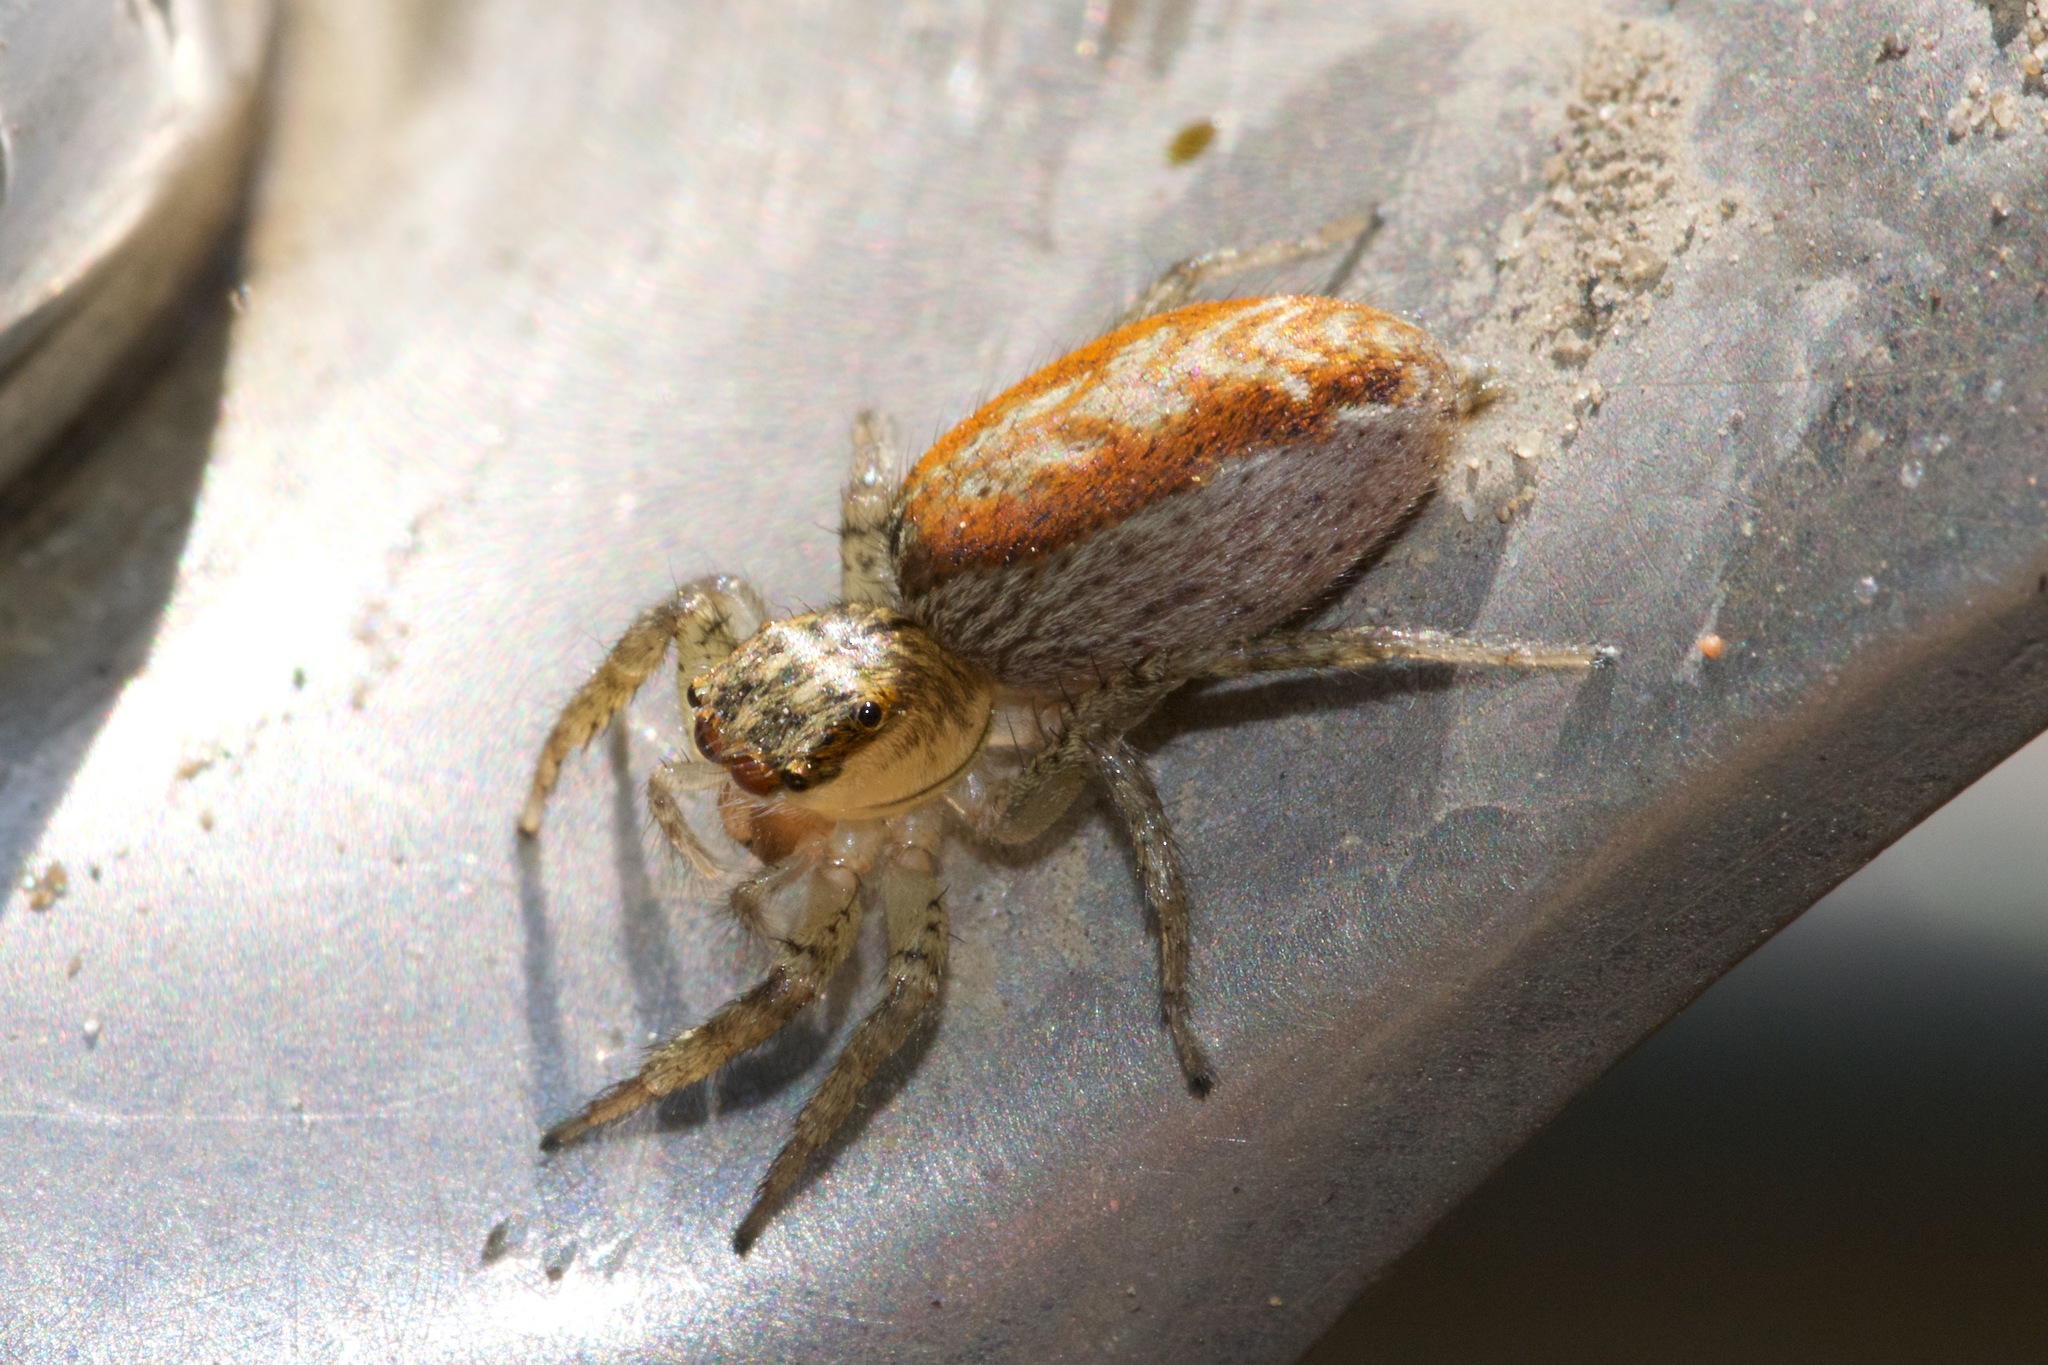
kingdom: Animalia
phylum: Arthropoda
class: Arachnida
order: Araneae
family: Salticidae
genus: Maevia
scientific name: Maevia inclemens
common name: Dimorphic jumper
